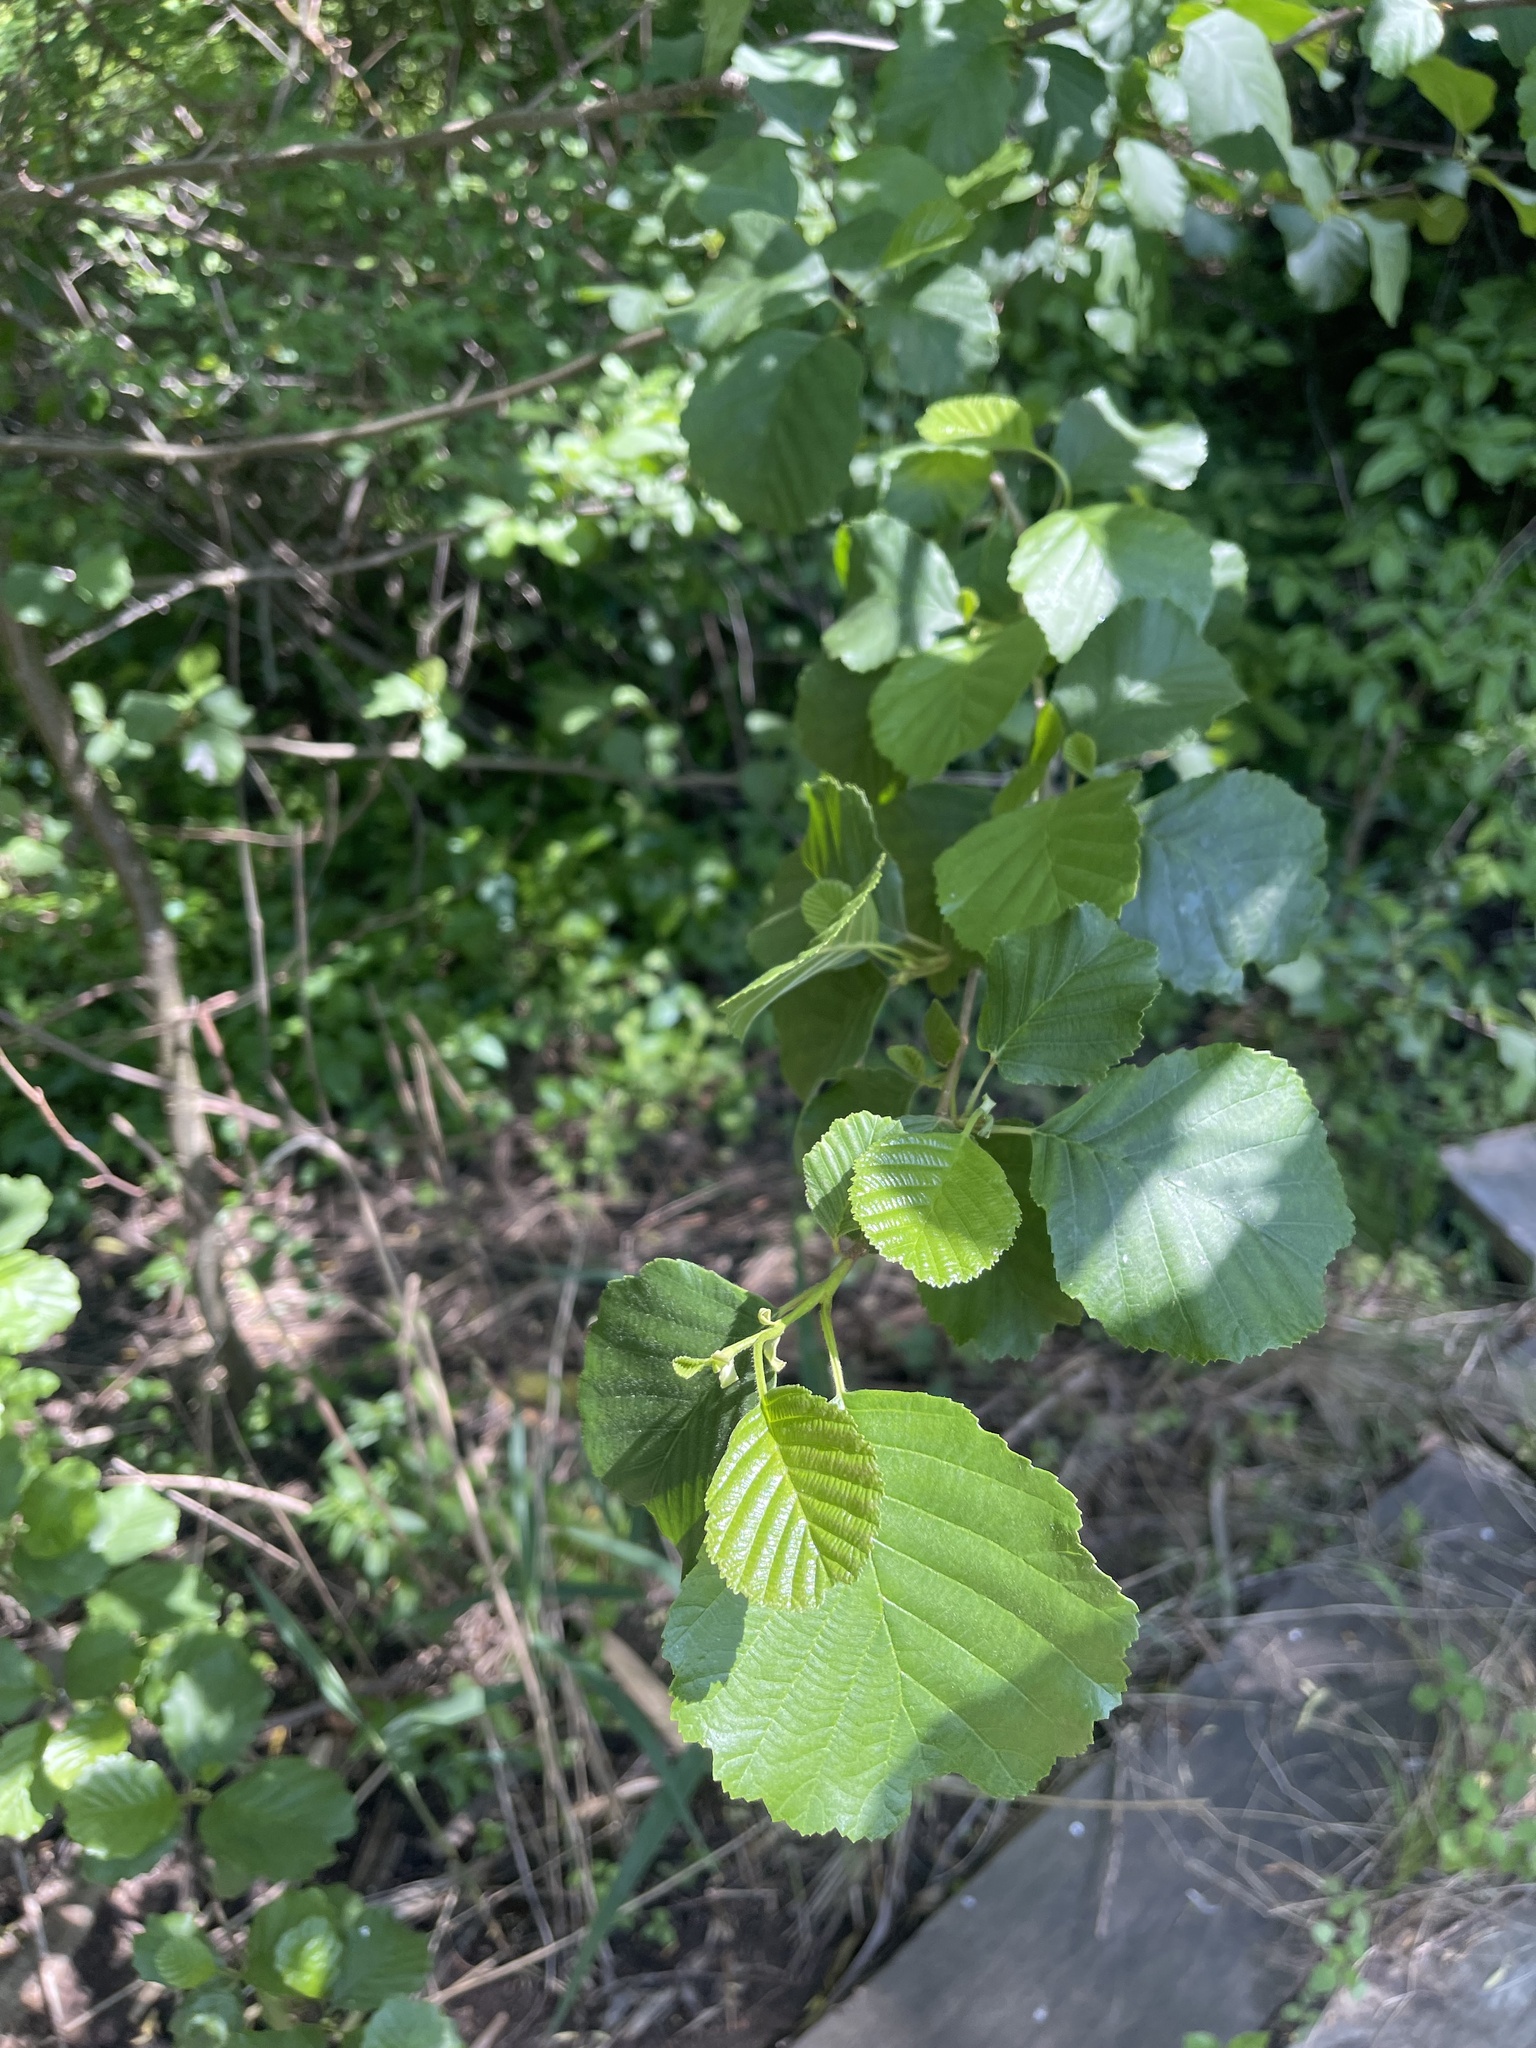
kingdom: Plantae
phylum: Tracheophyta
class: Magnoliopsida
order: Fagales
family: Betulaceae
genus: Alnus
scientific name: Alnus glutinosa
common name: Black alder
